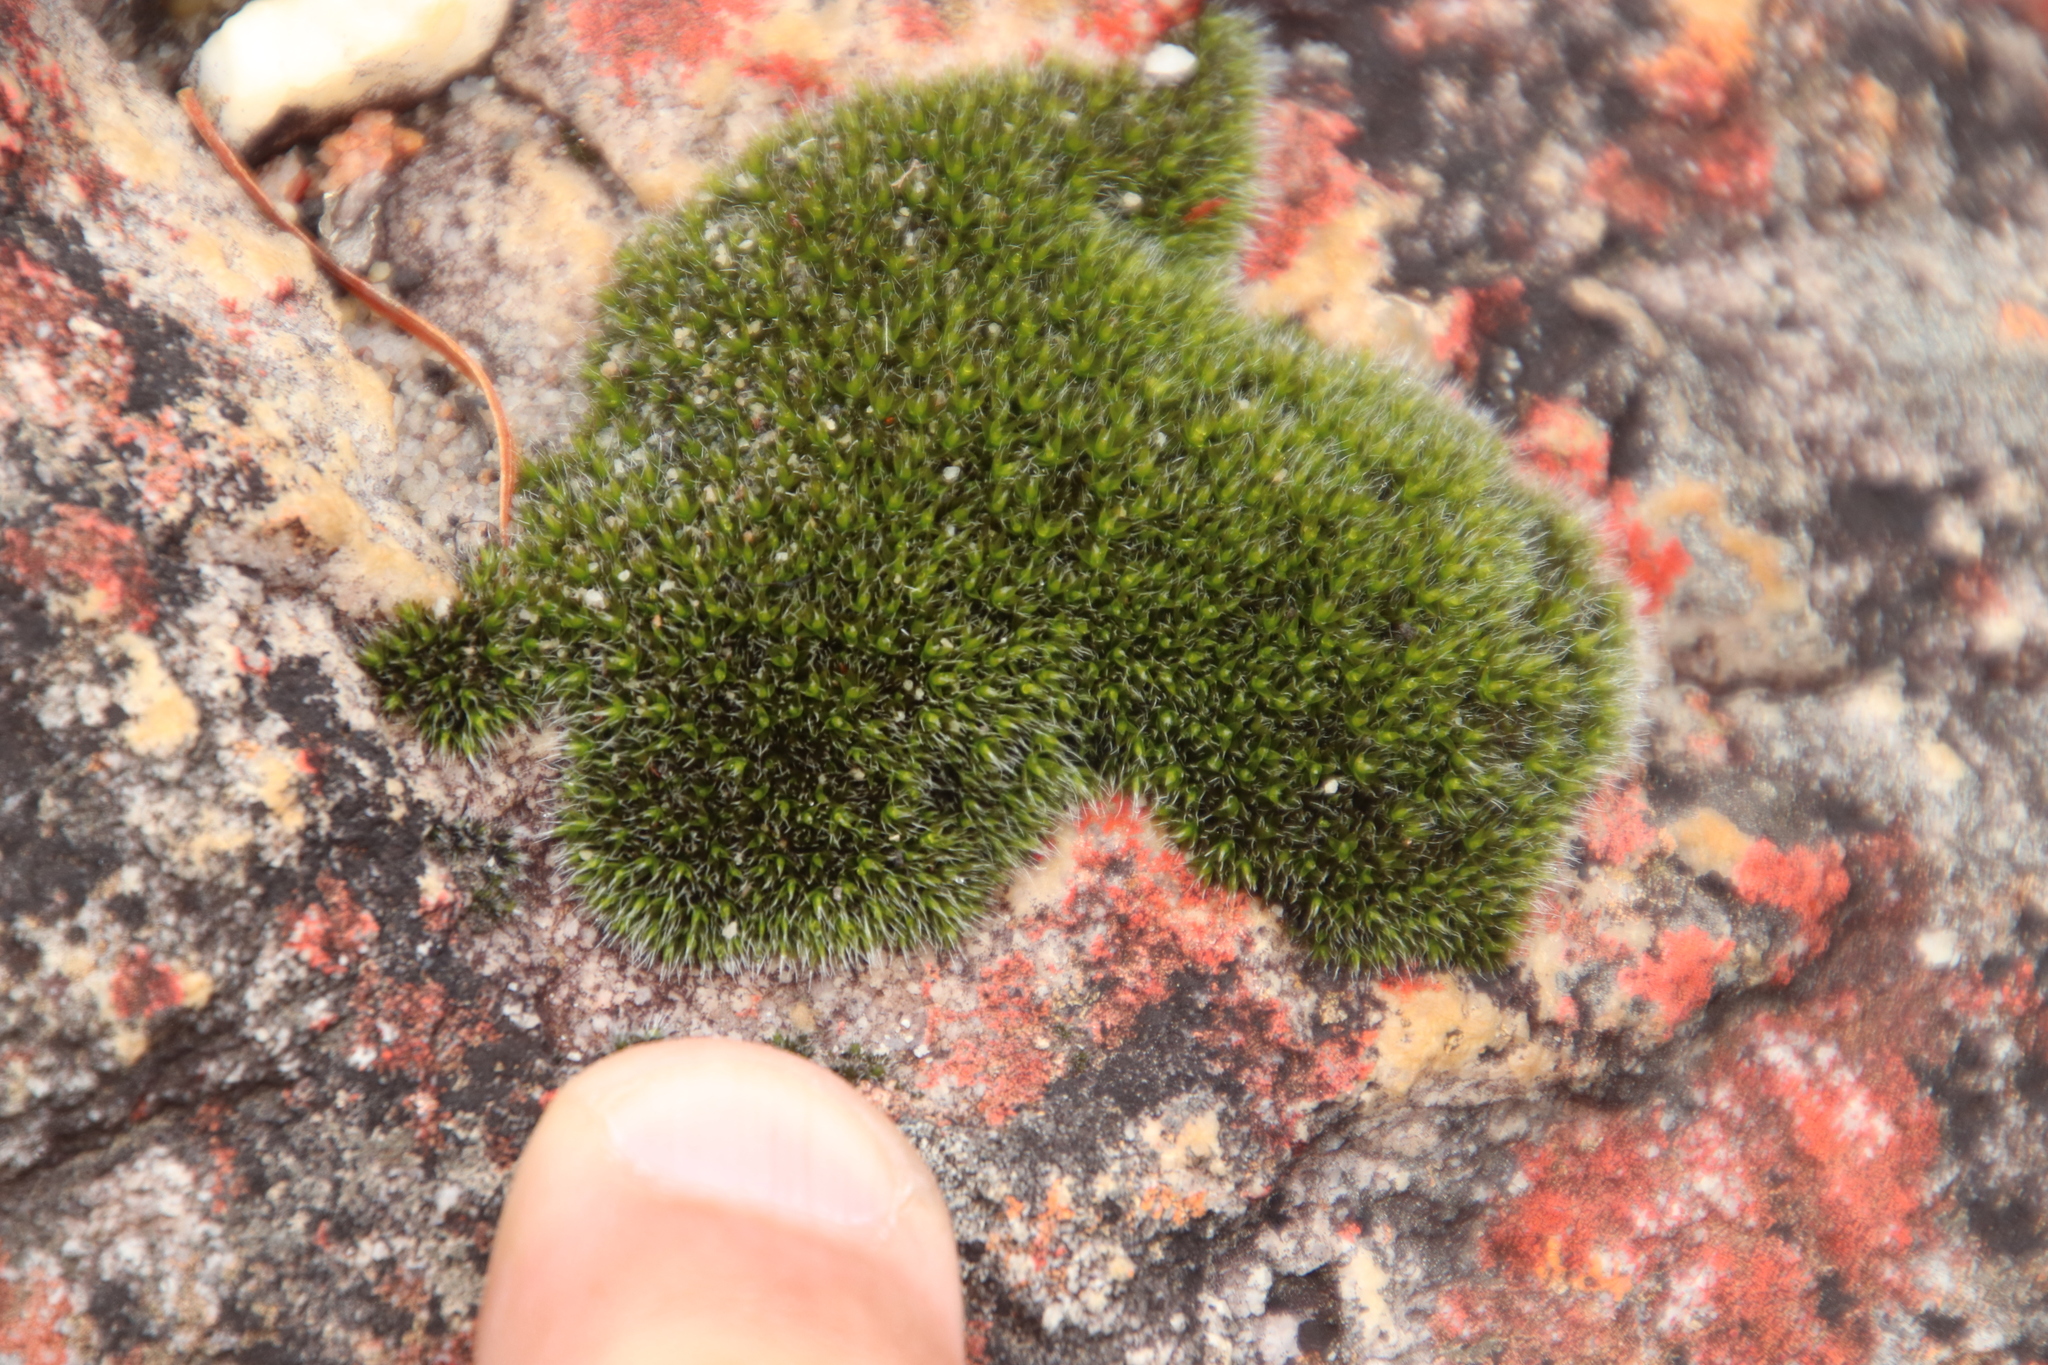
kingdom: Plantae
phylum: Bryophyta
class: Bryopsida
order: Grimmiales
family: Grimmiaceae
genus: Grimmia
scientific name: Grimmia laevigata
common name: Hoary grimmia
